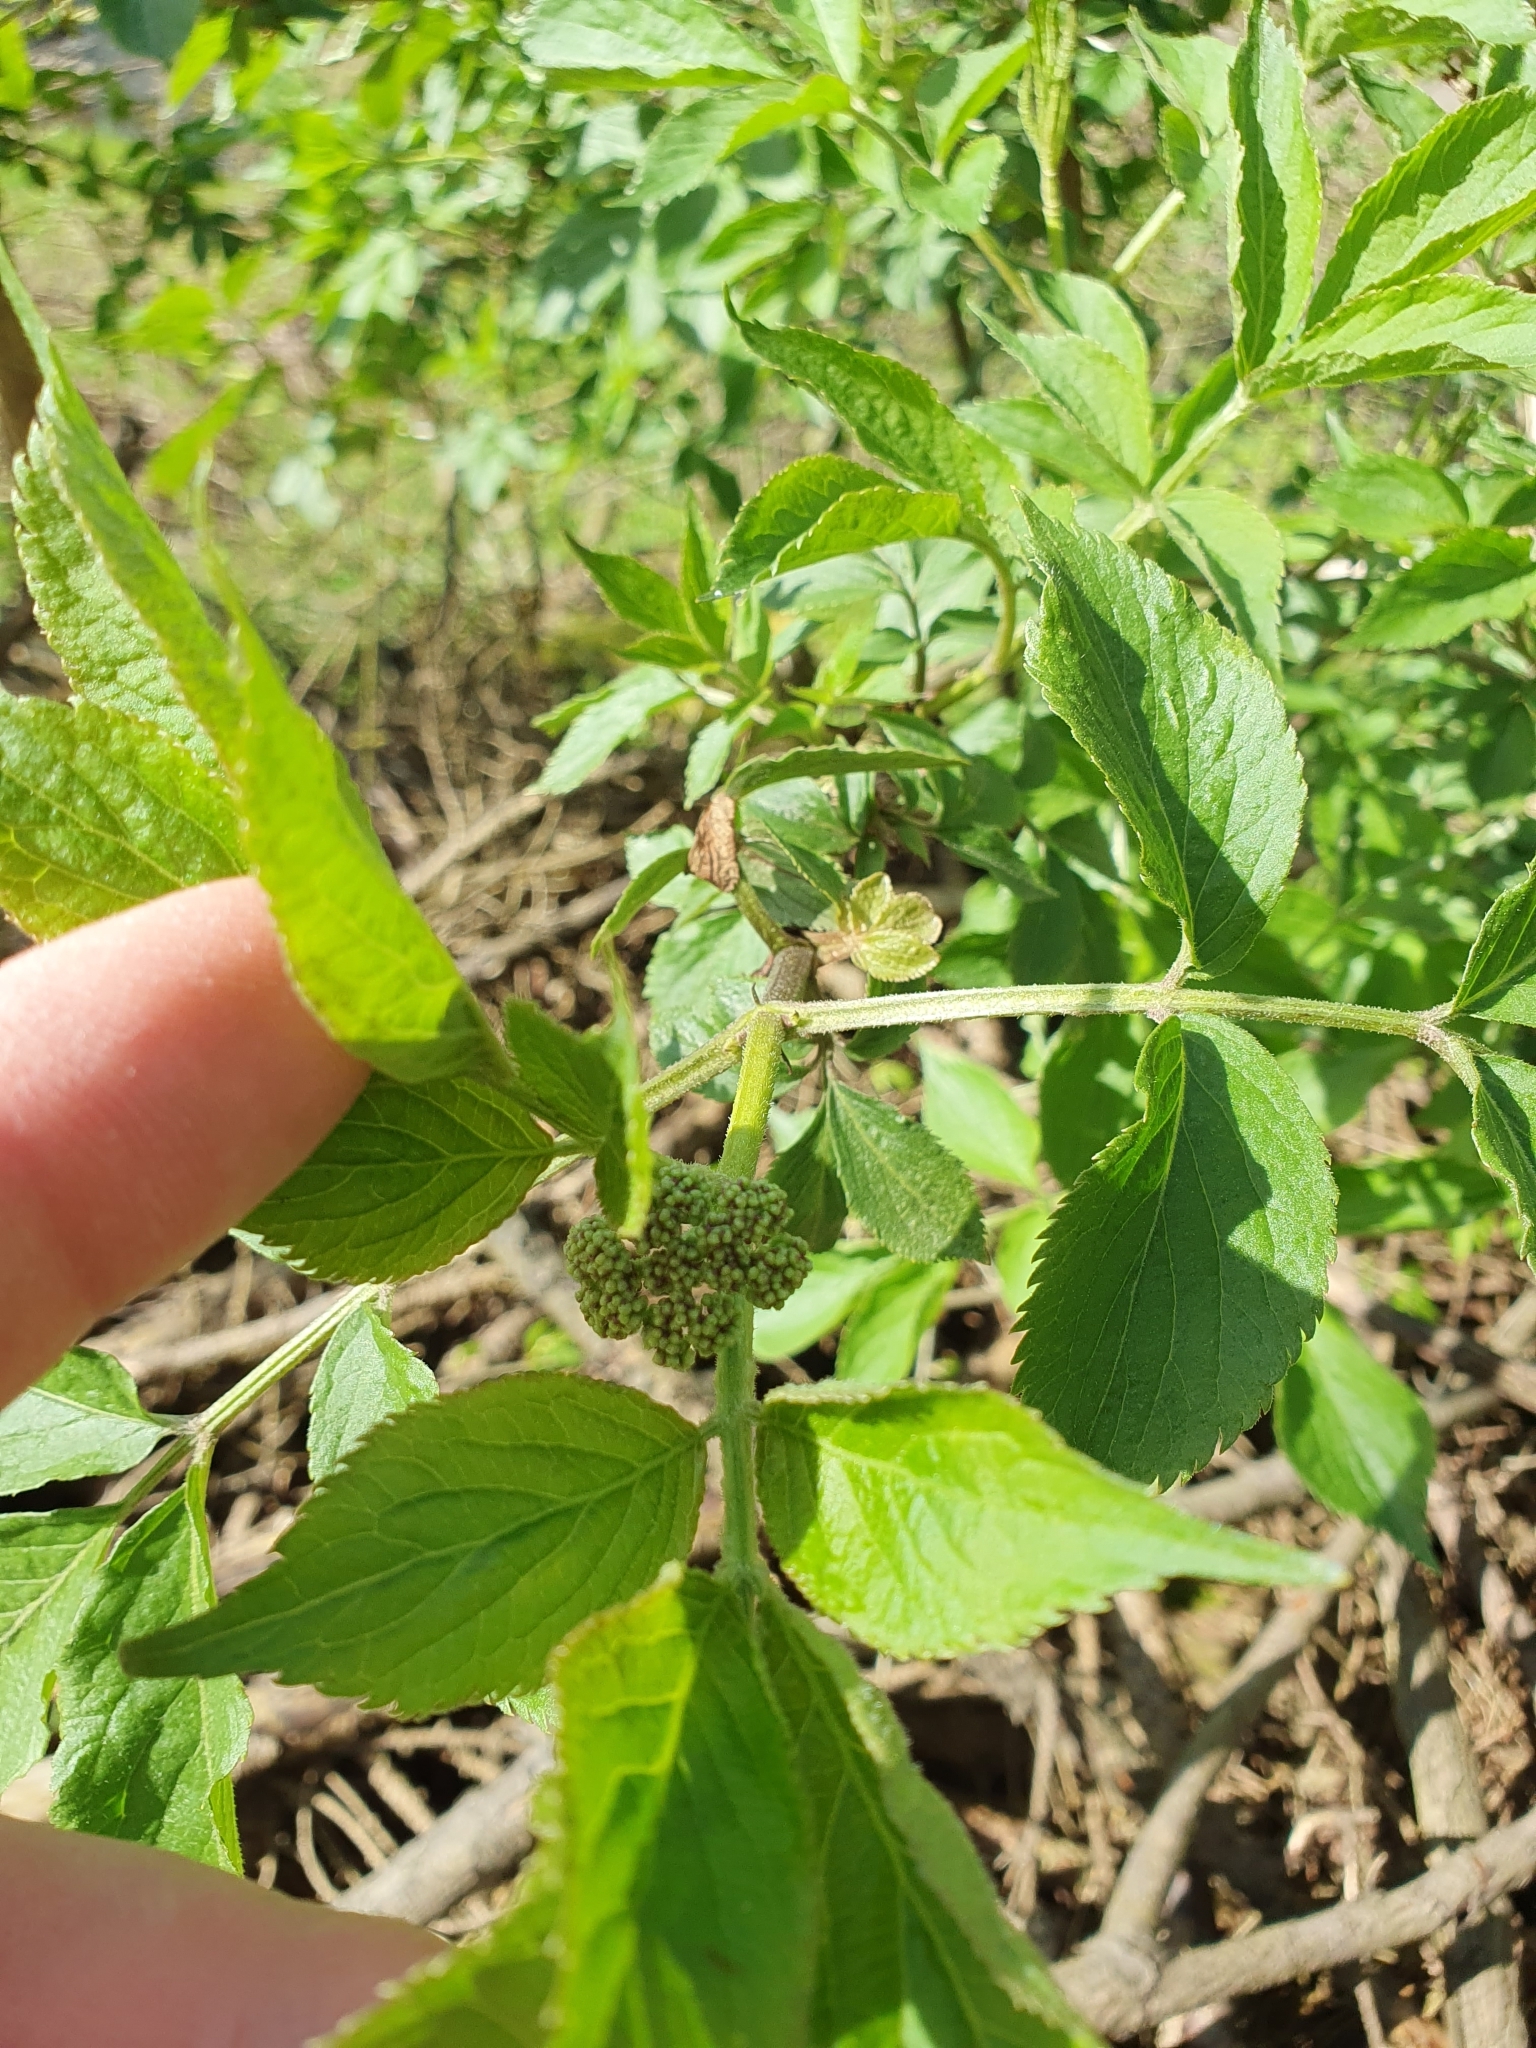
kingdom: Plantae
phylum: Tracheophyta
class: Magnoliopsida
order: Dipsacales
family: Viburnaceae
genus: Sambucus
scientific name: Sambucus nigra
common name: Elder
